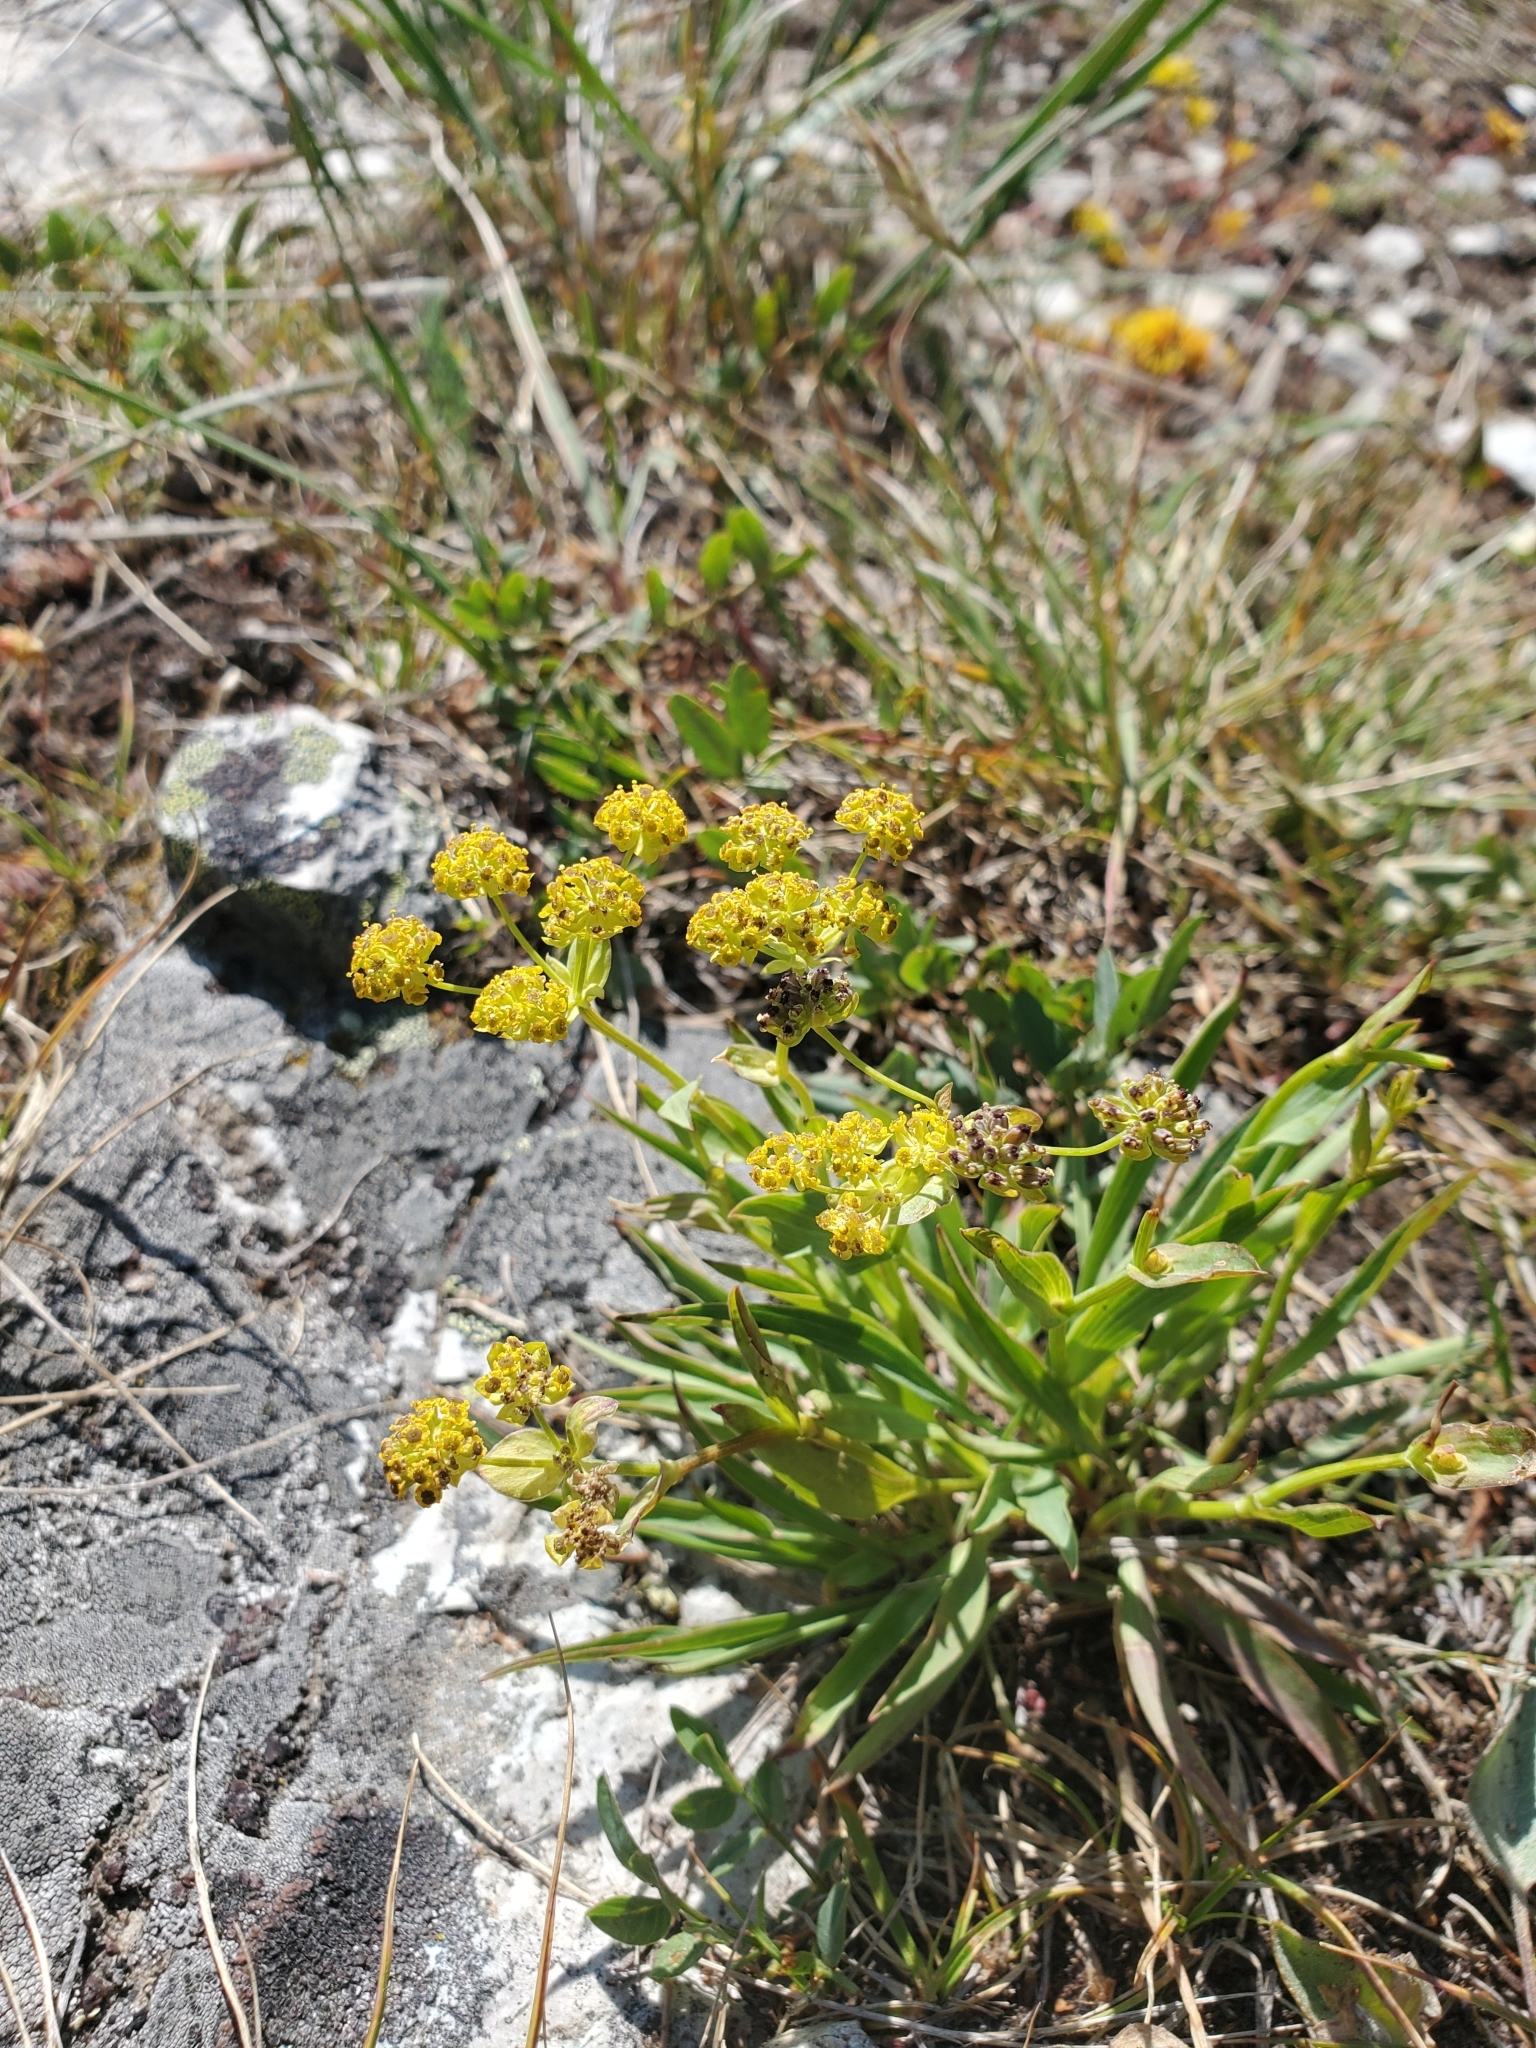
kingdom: Plantae
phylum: Tracheophyta
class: Magnoliopsida
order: Apiales
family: Apiaceae
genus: Bupleurum
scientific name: Bupleurum americanum
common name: American thoroughwax
